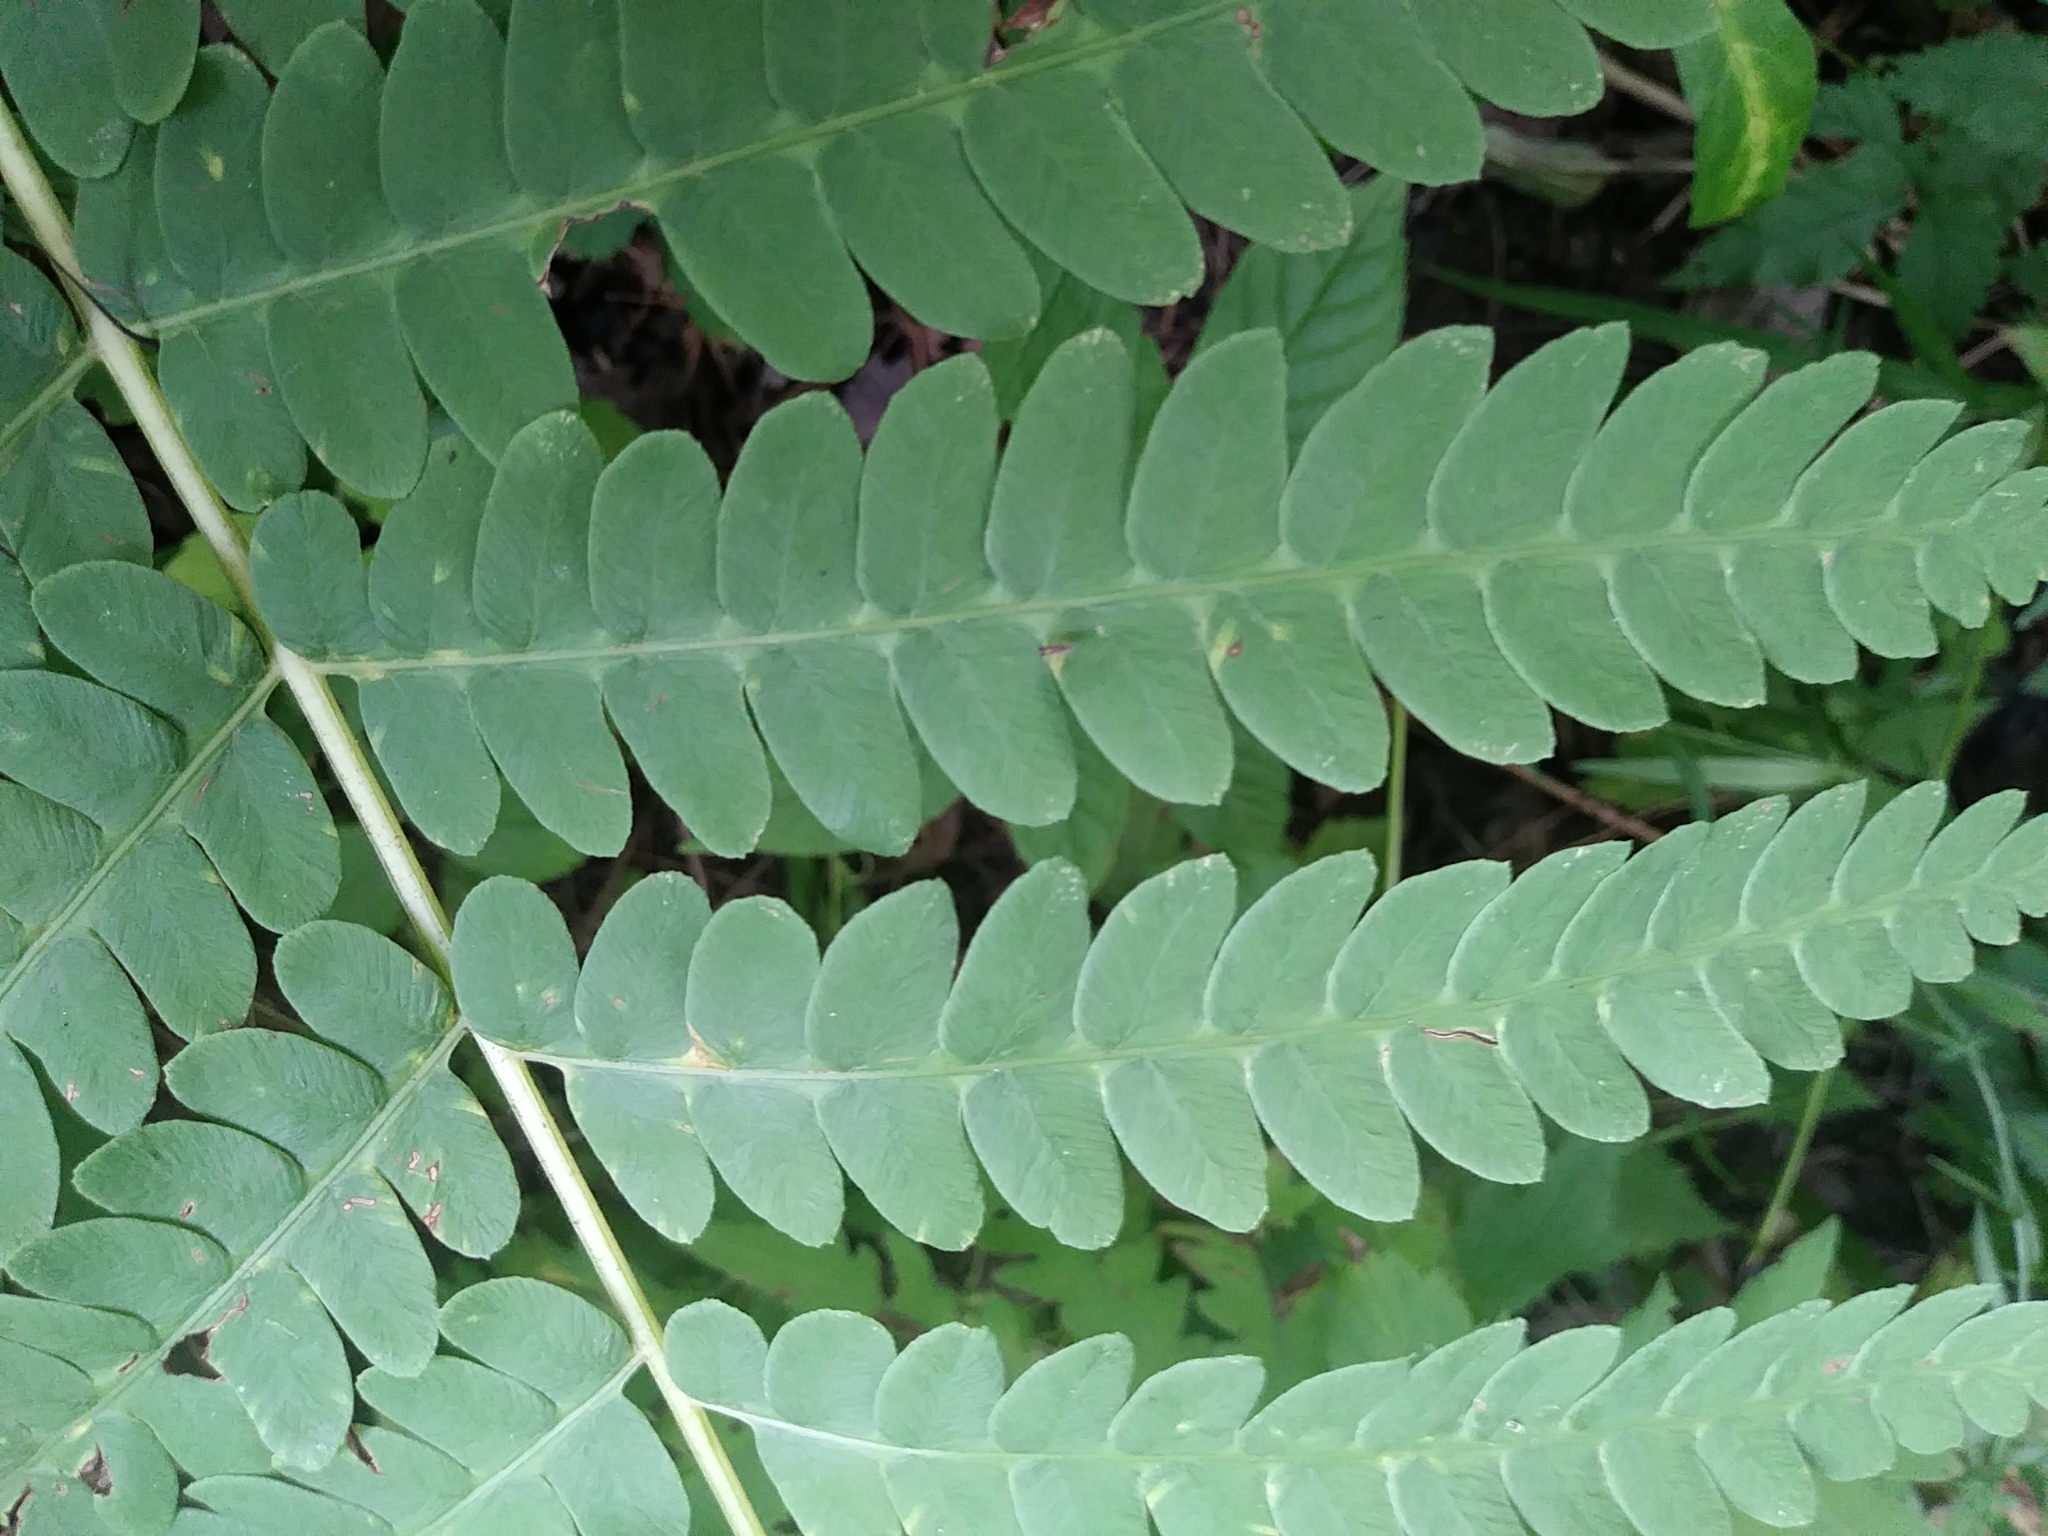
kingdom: Plantae
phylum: Tracheophyta
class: Polypodiopsida
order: Osmundales
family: Osmundaceae
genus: Claytosmunda
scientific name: Claytosmunda claytoniana
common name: Clayton's fern
